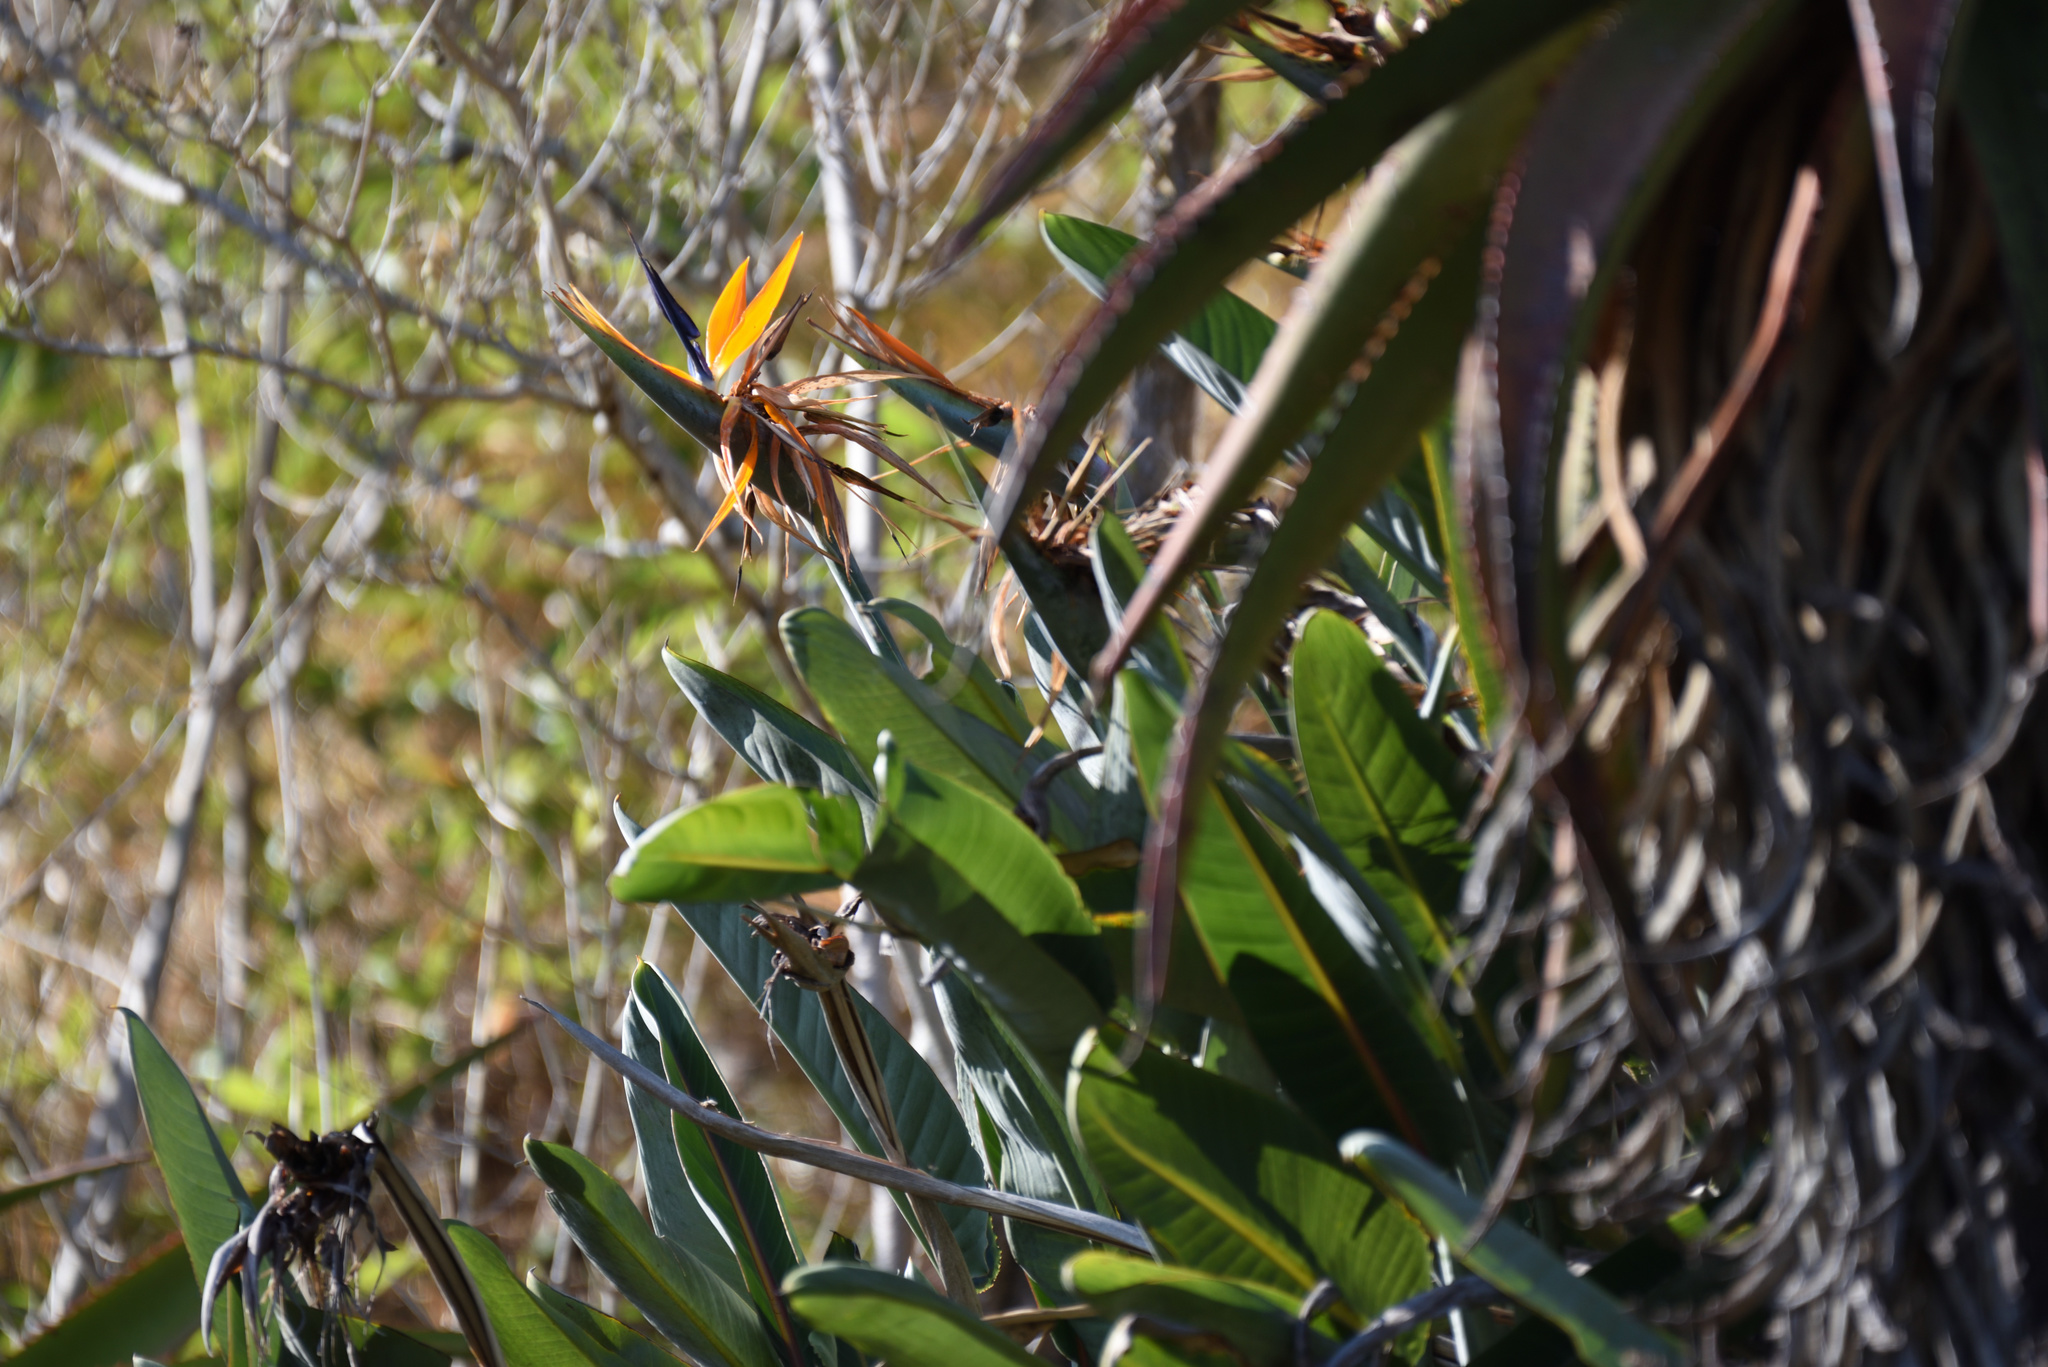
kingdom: Plantae
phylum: Tracheophyta
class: Liliopsida
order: Zingiberales
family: Strelitziaceae
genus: Strelitzia
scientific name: Strelitzia reginae
